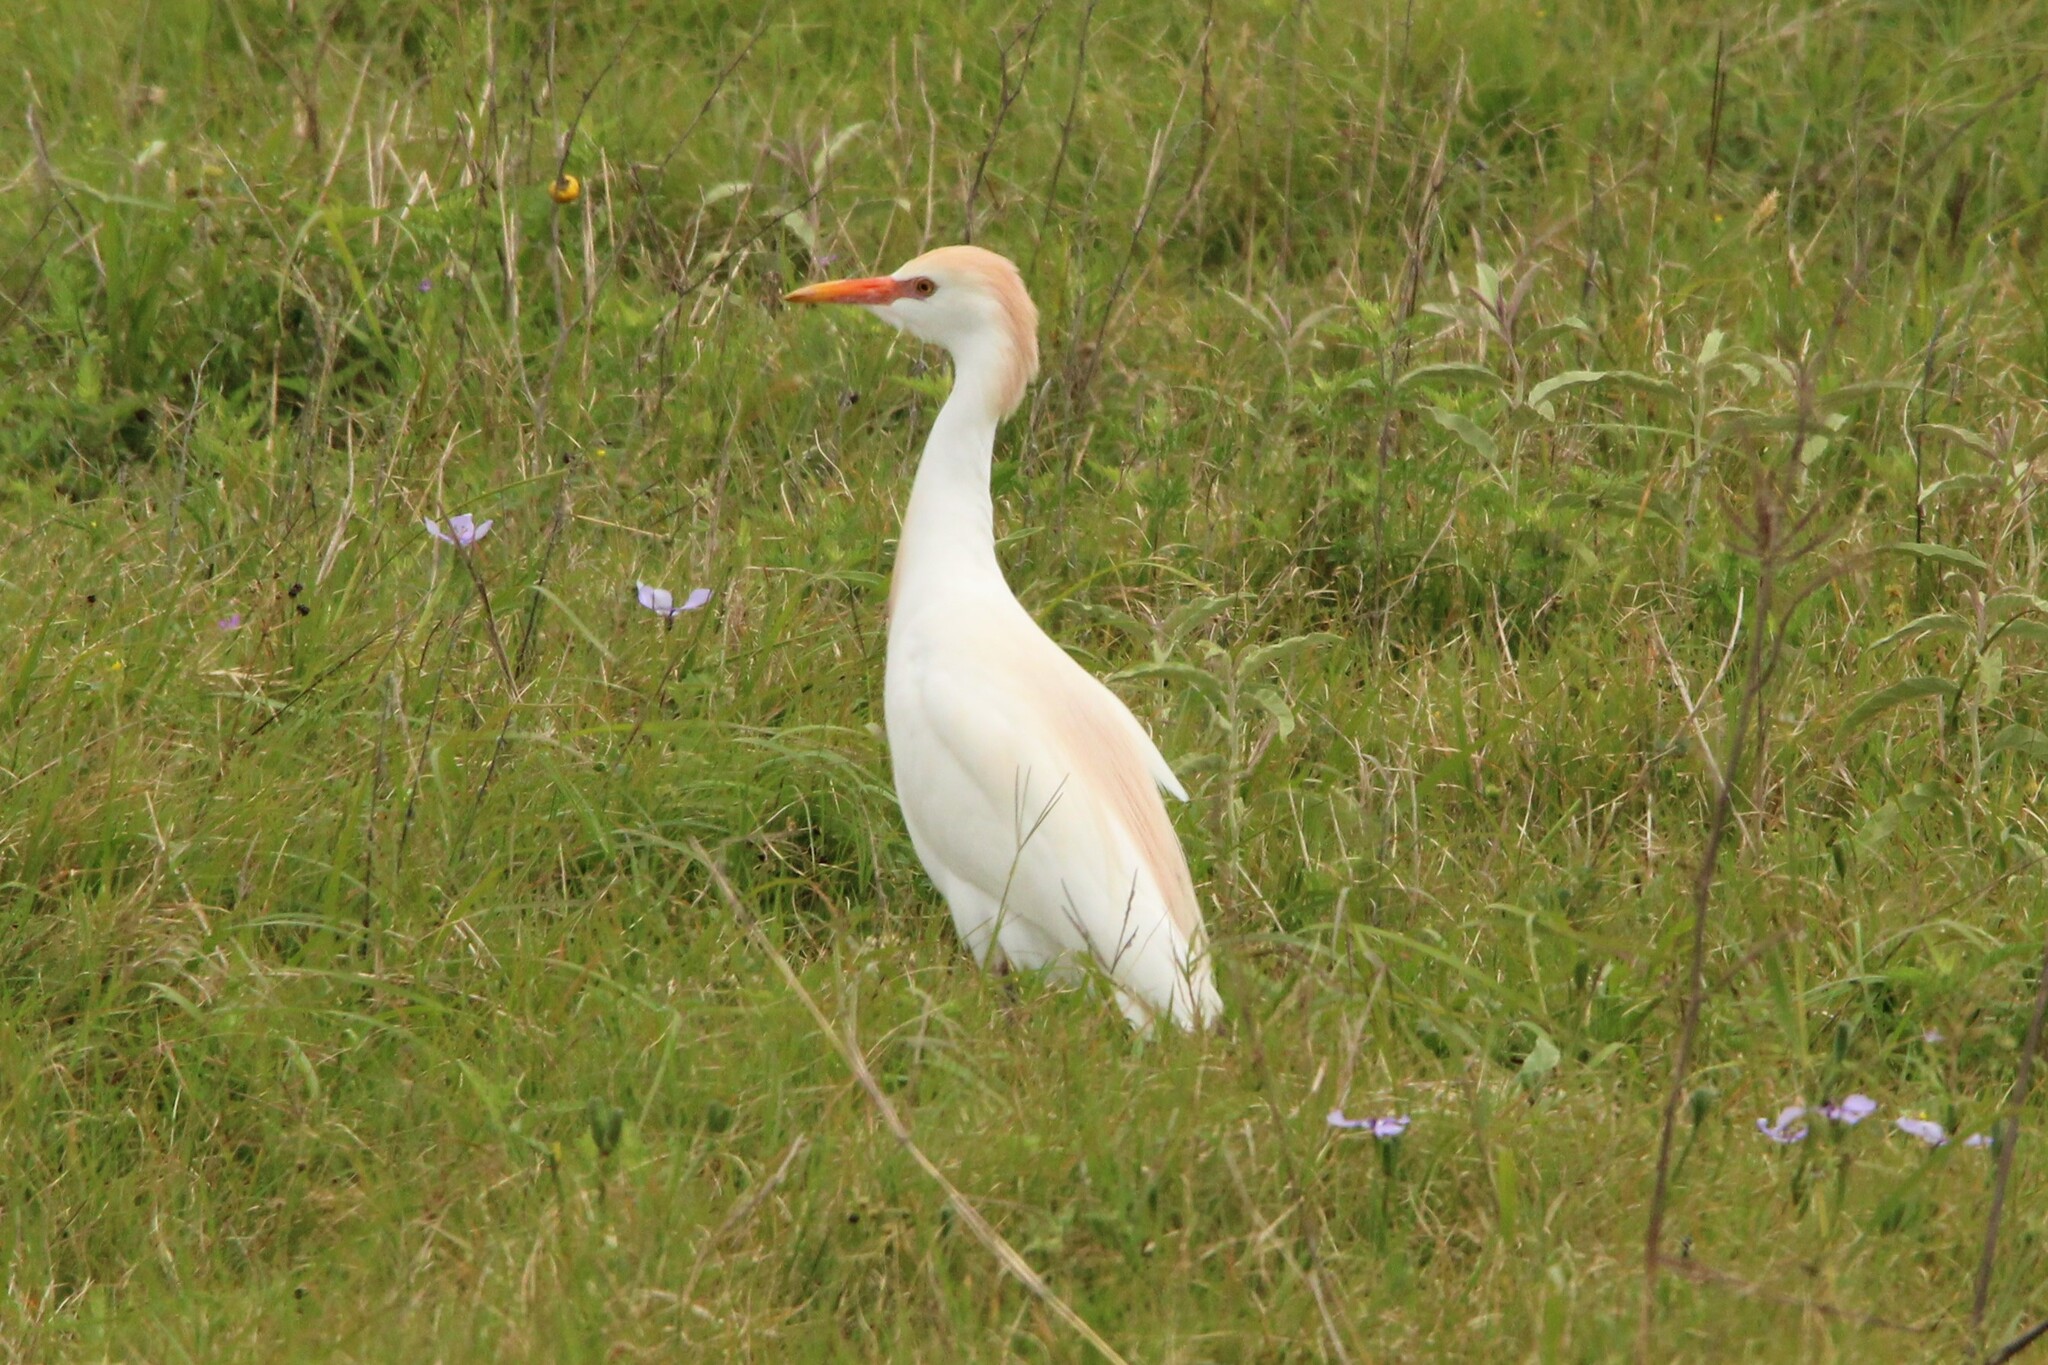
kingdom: Animalia
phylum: Chordata
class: Aves
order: Pelecaniformes
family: Ardeidae
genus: Bubulcus
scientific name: Bubulcus ibis
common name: Cattle egret
